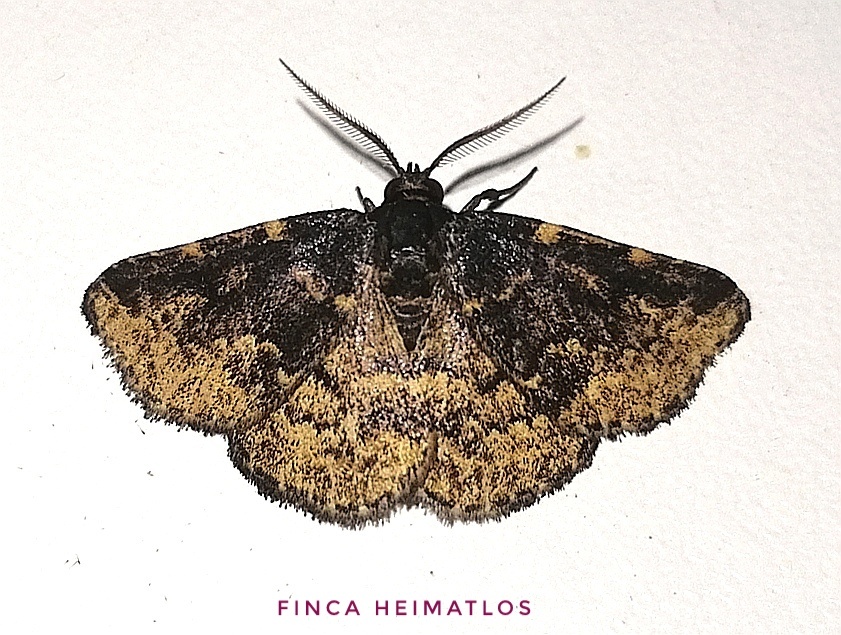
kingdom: Animalia
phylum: Arthropoda
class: Insecta
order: Lepidoptera
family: Erebidae
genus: Prosoparia
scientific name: Prosoparia marginata
